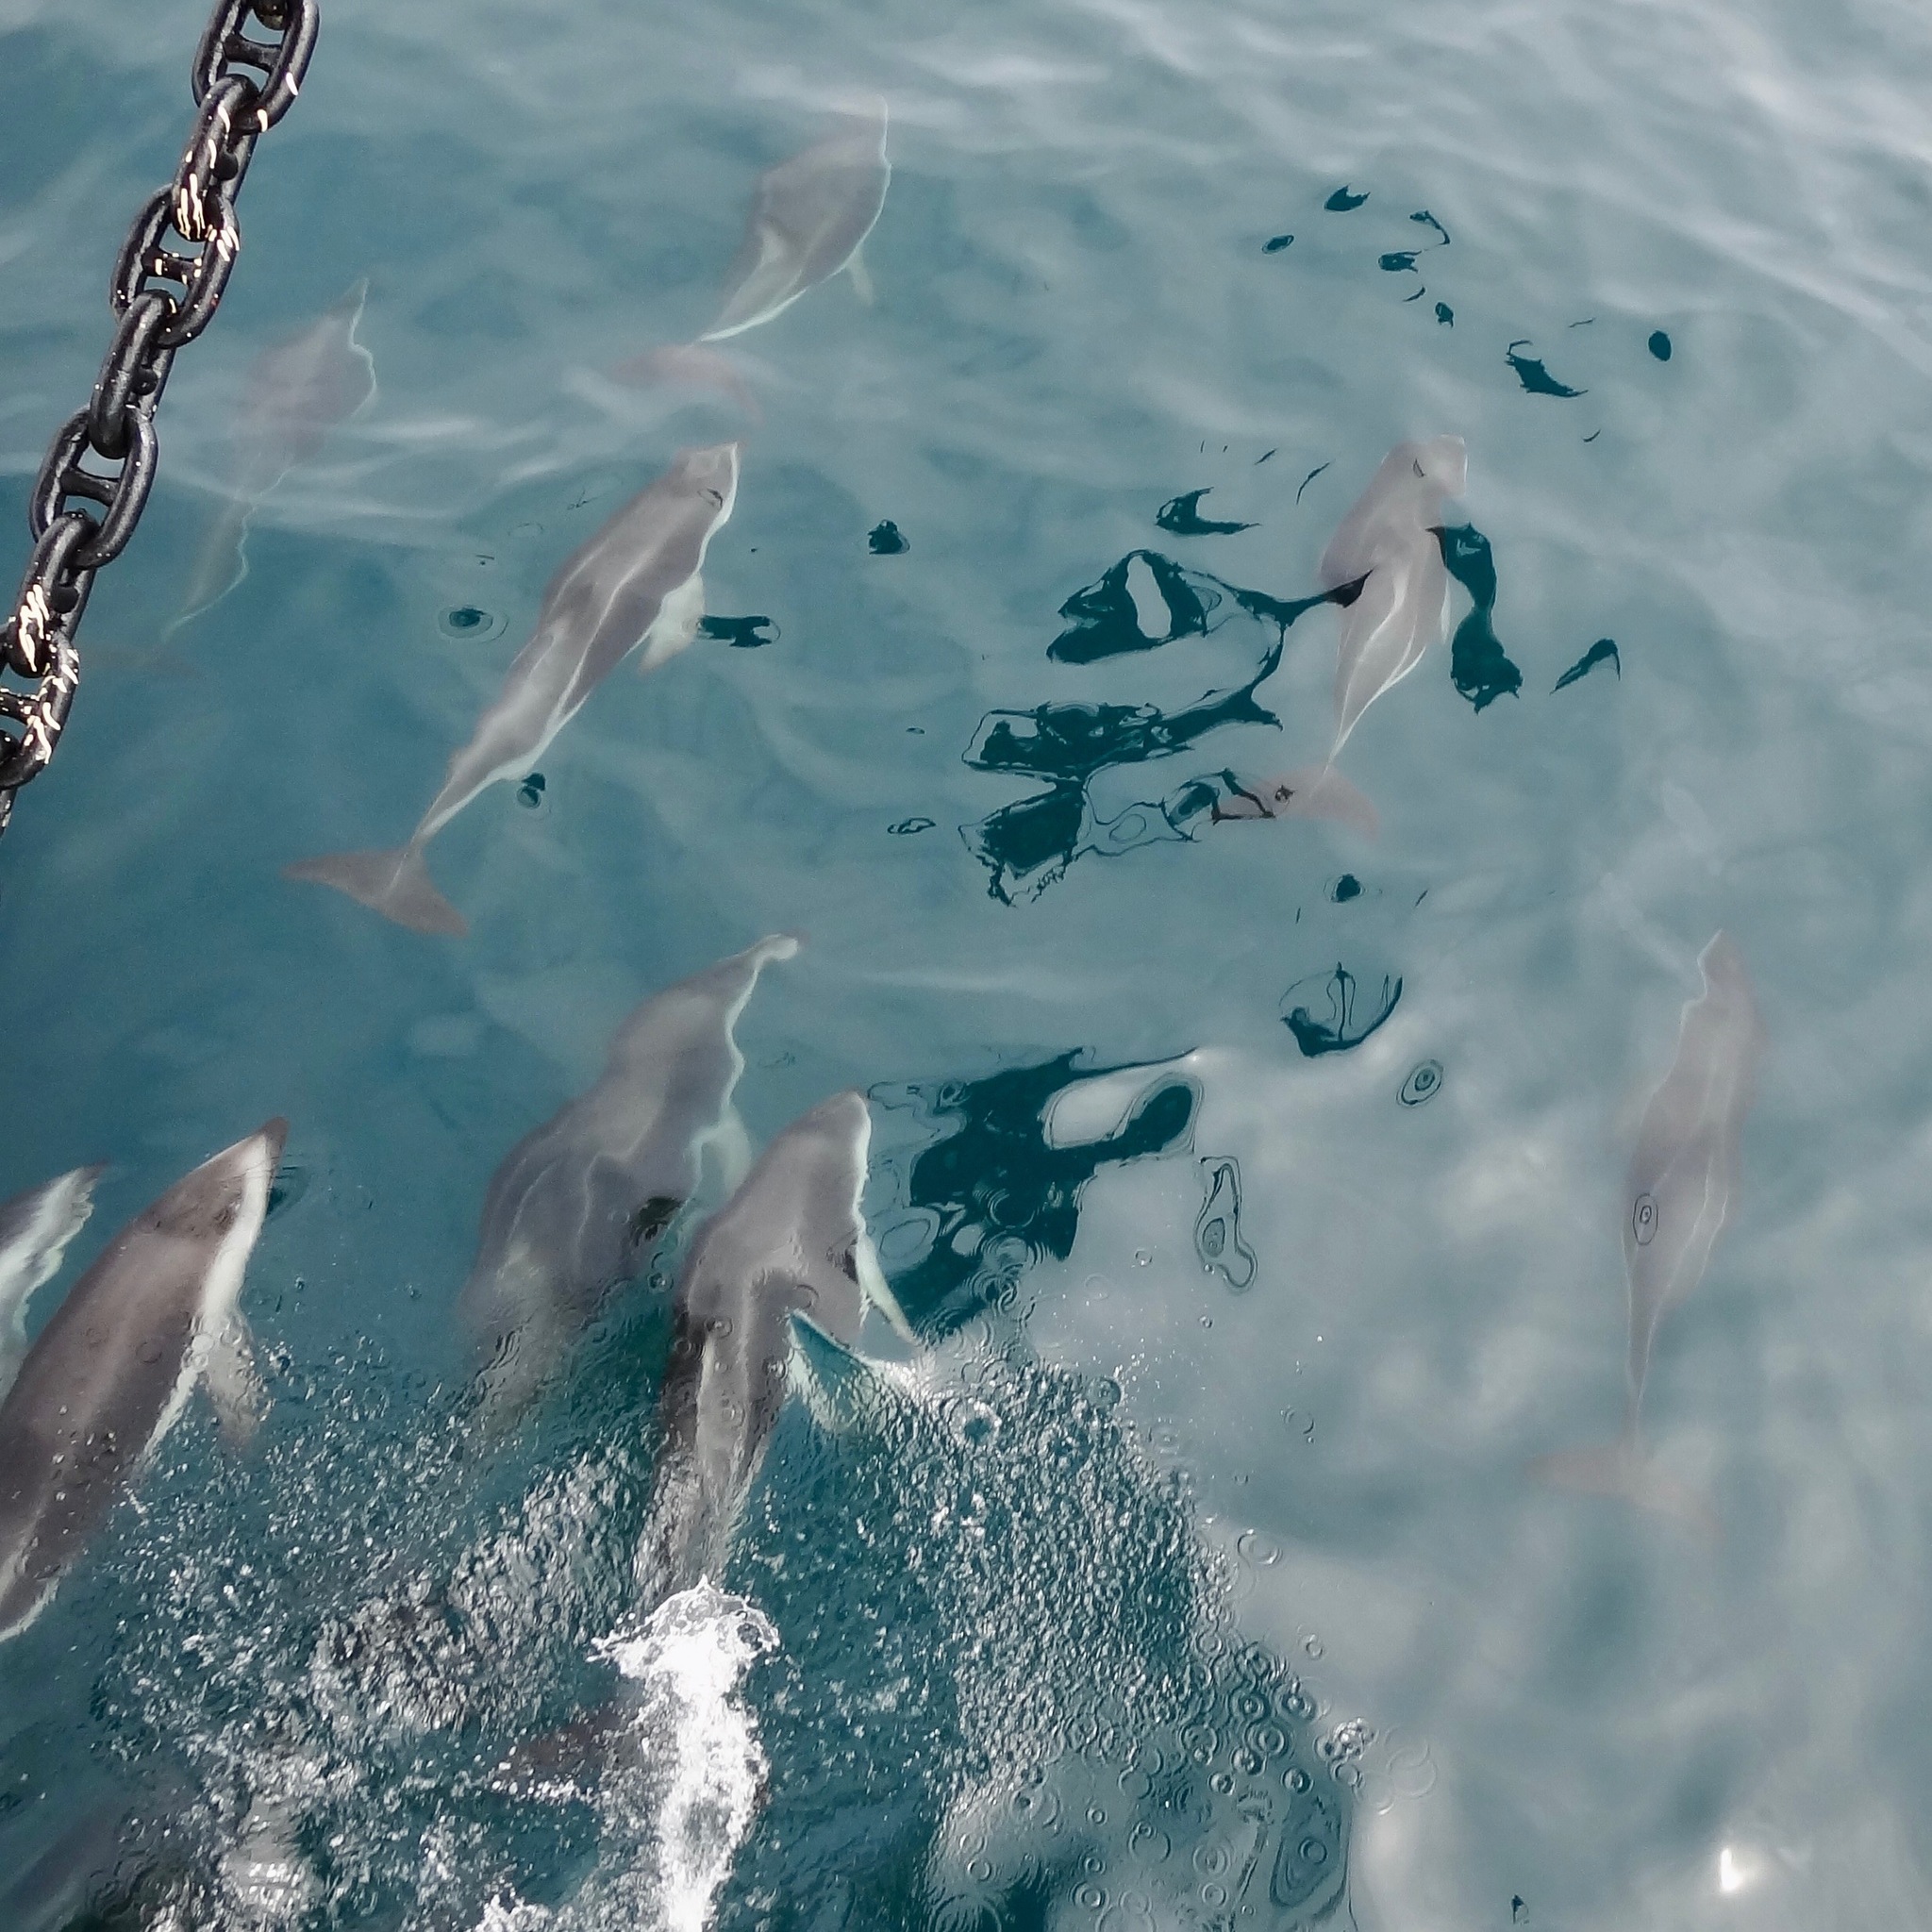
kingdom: Animalia
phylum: Chordata
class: Mammalia
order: Cetacea
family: Delphinidae
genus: Lagenorhynchus
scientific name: Lagenorhynchus obscurus
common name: Dusky dolphin
